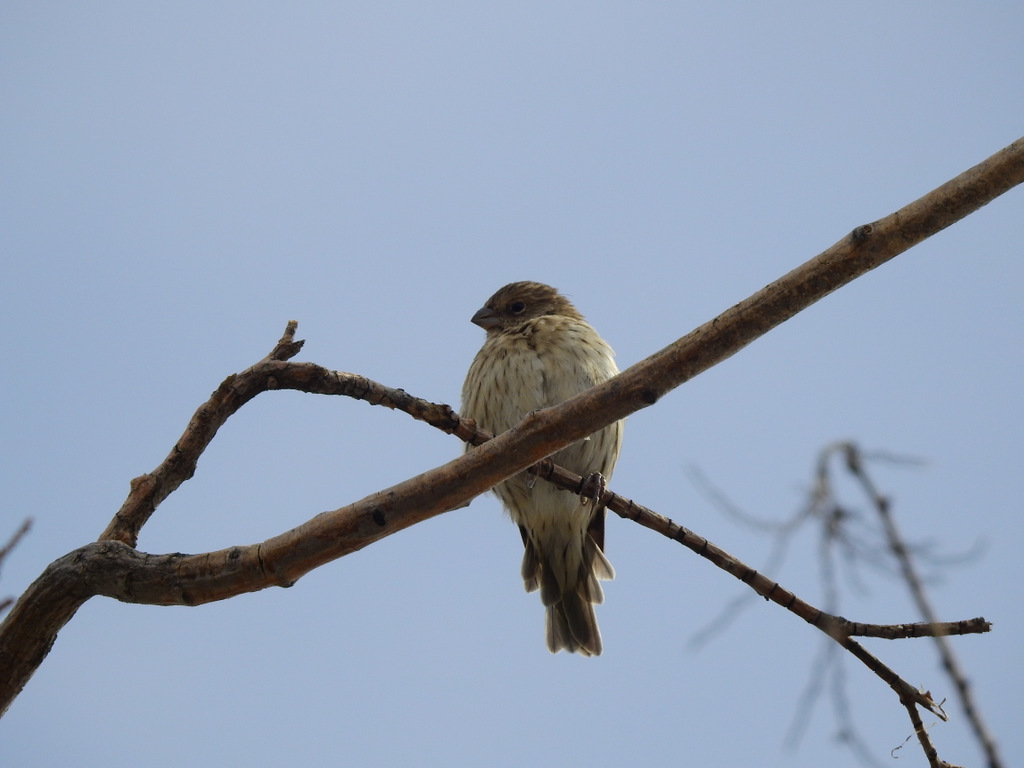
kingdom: Animalia
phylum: Chordata
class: Aves
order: Passeriformes
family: Thraupidae
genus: Sicalis
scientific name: Sicalis flaveola
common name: Saffron finch
